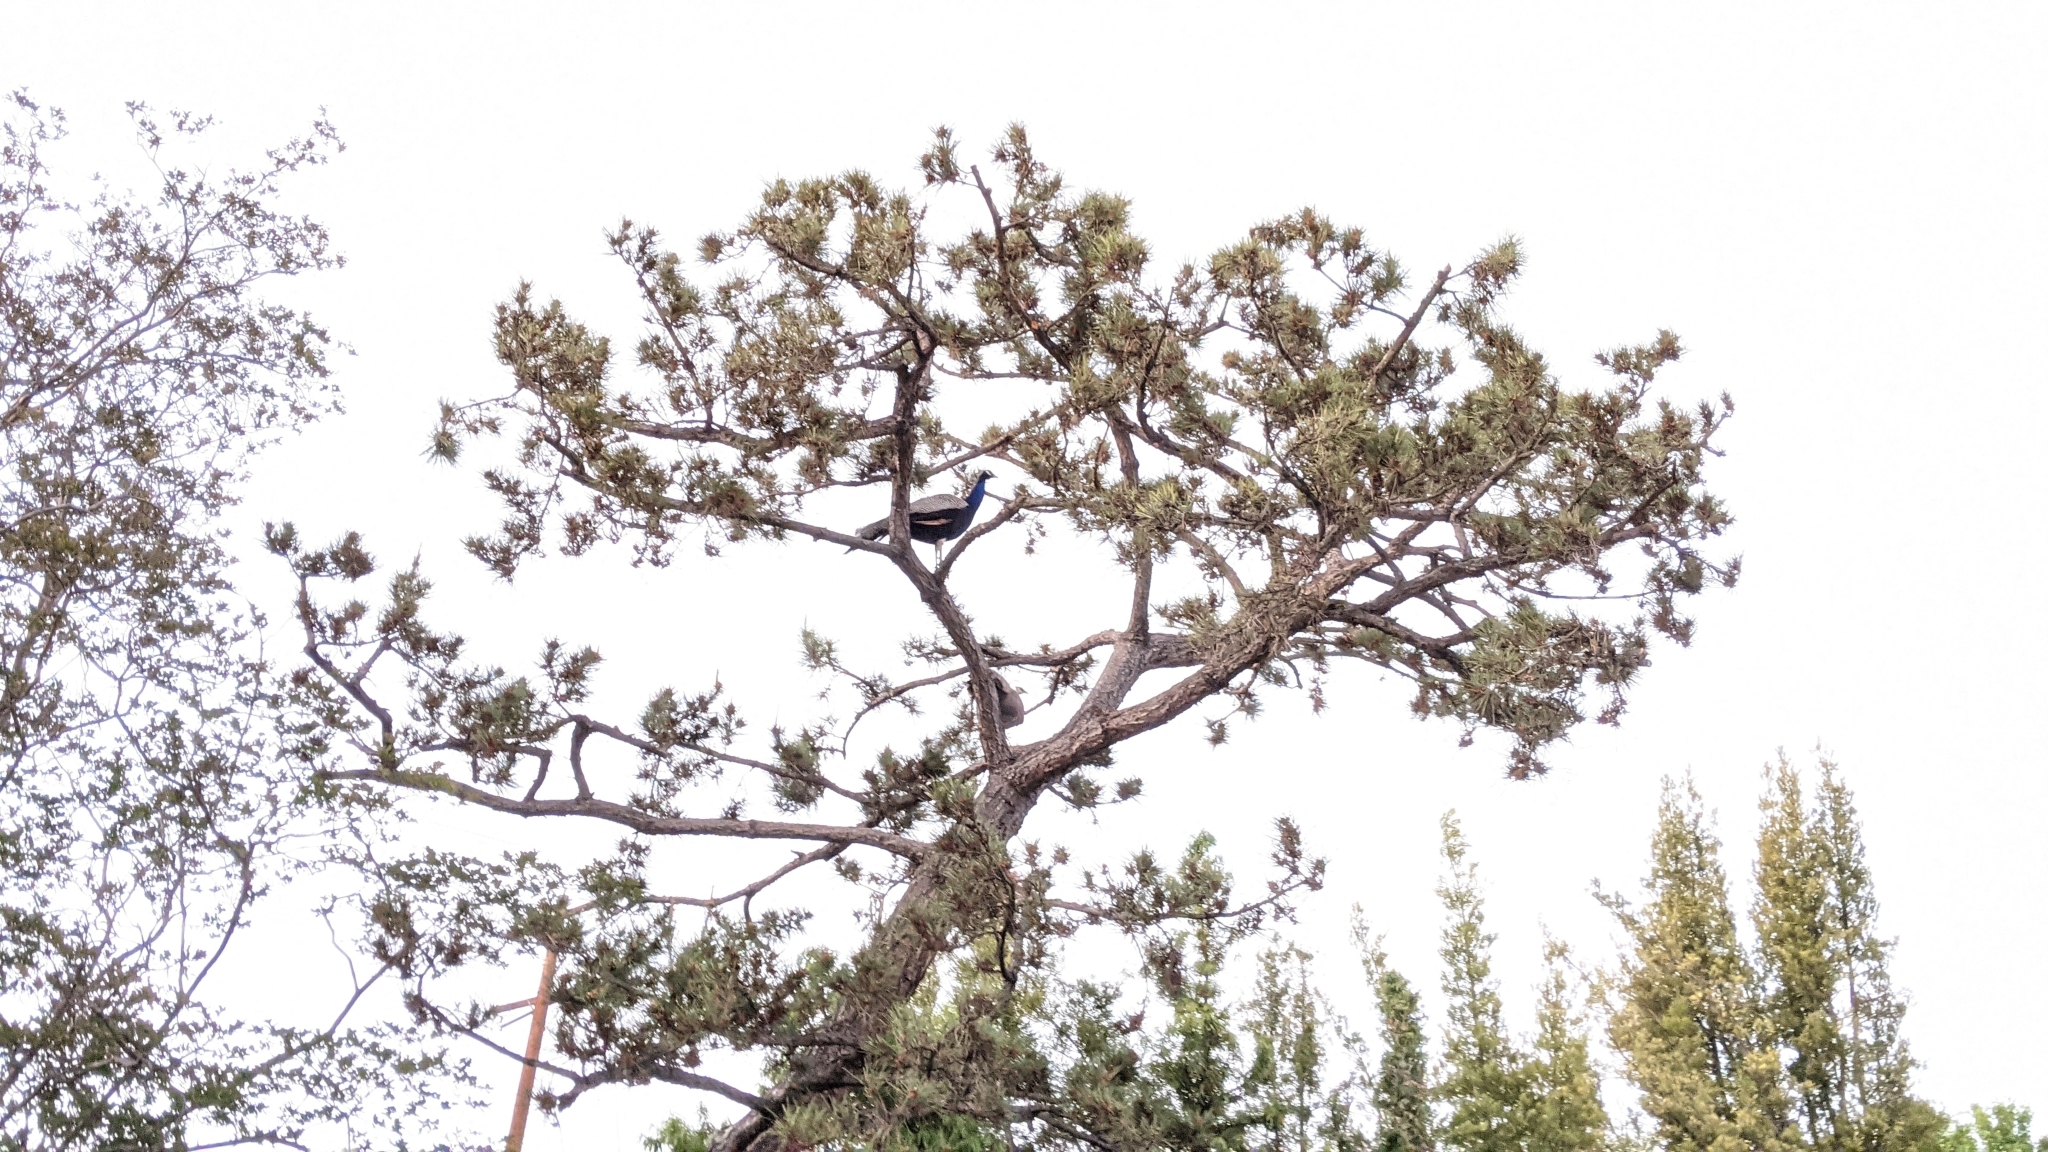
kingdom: Animalia
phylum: Chordata
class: Aves
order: Galliformes
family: Phasianidae
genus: Pavo
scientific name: Pavo cristatus
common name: Indian peafowl
